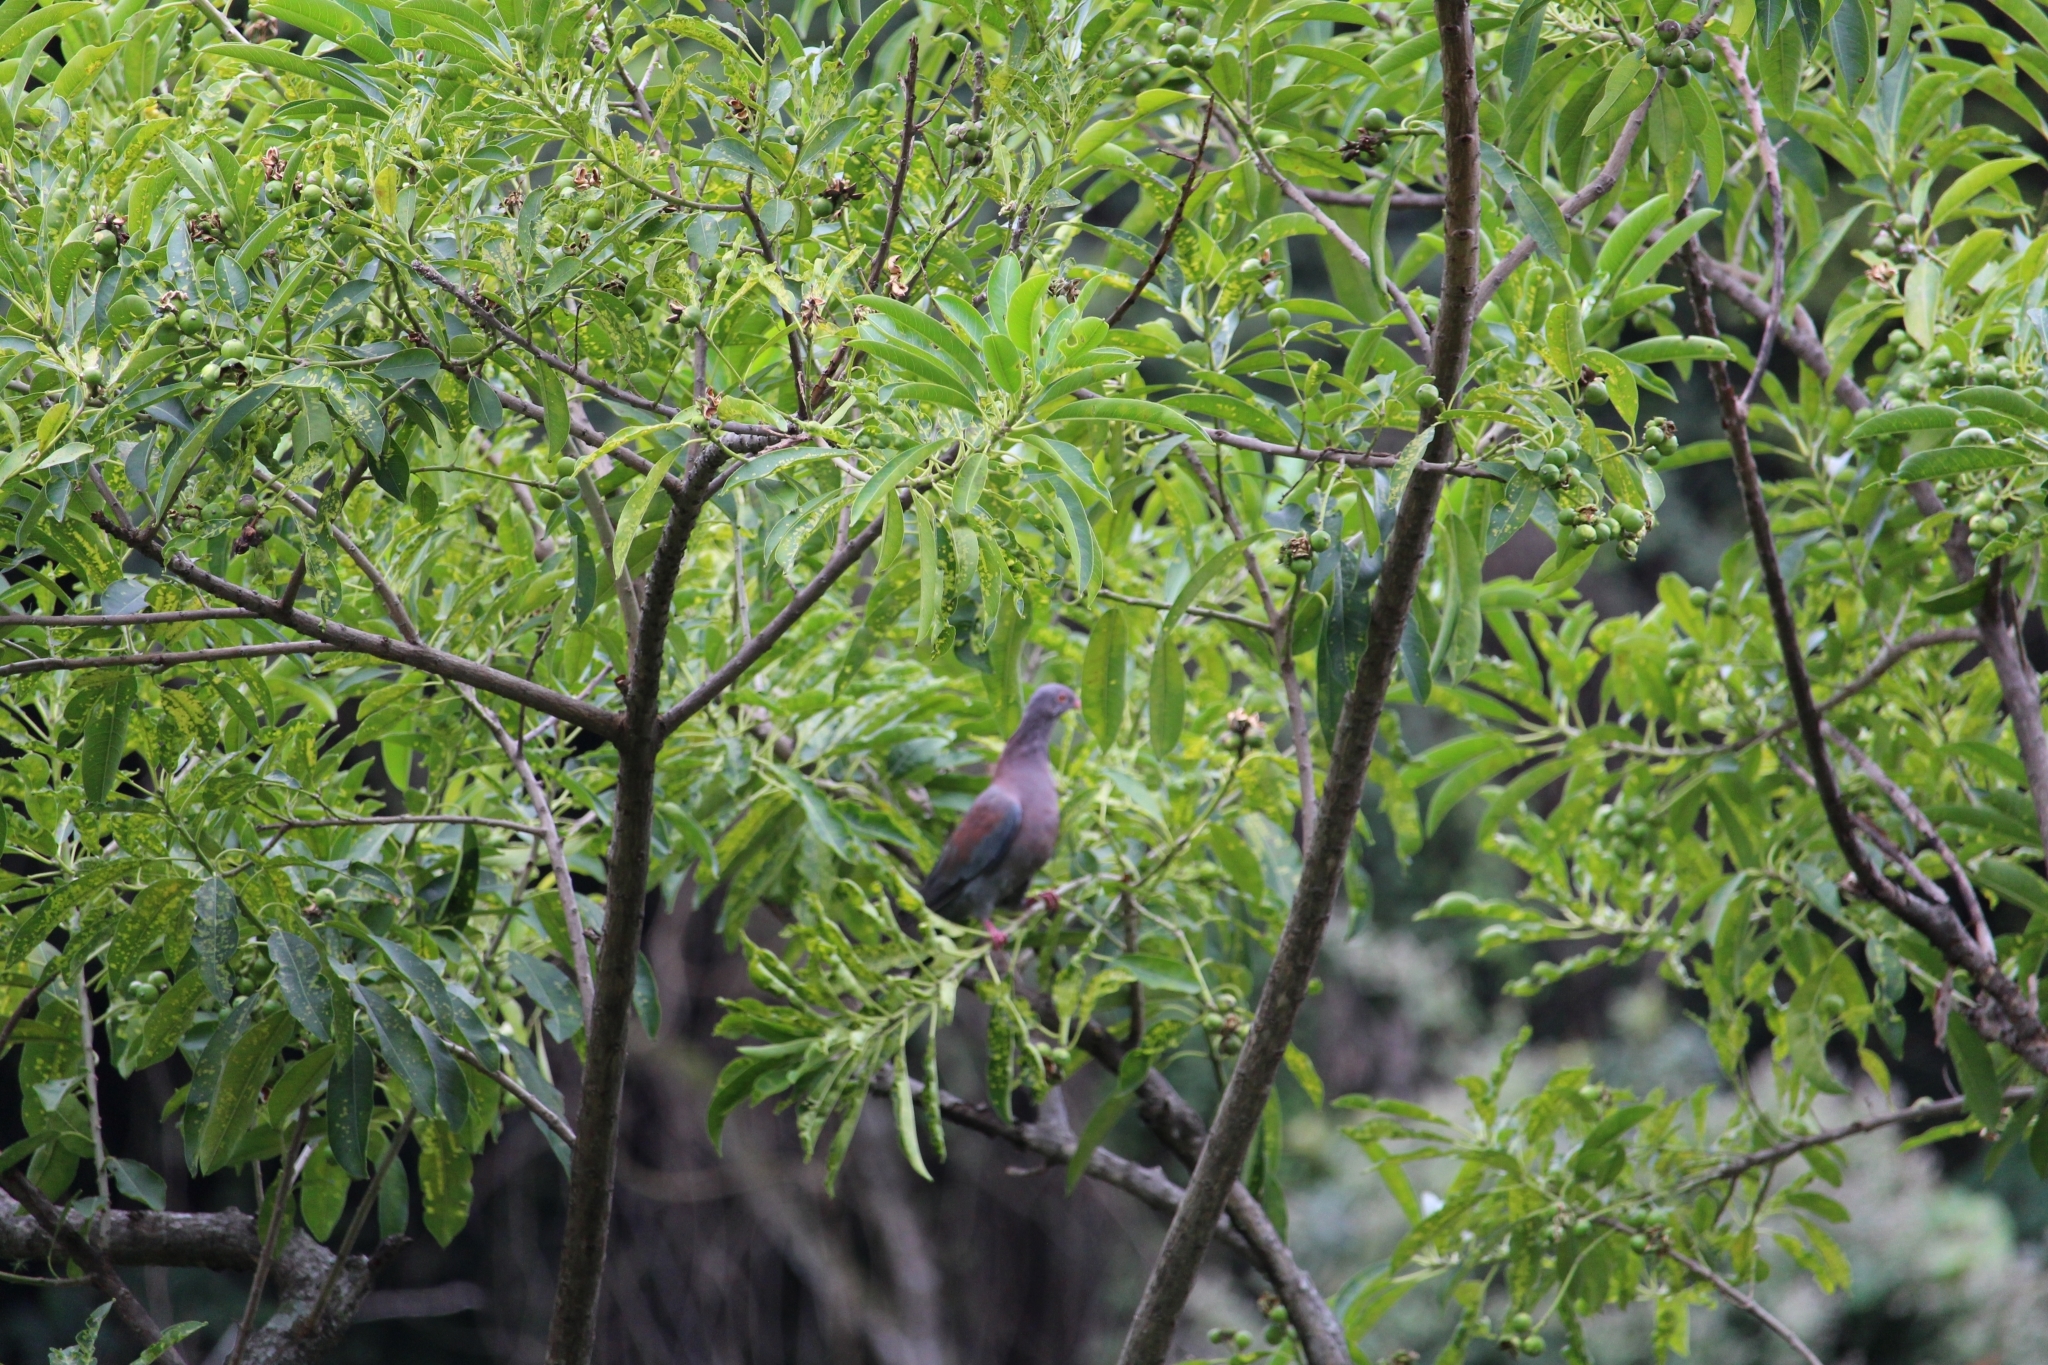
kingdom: Animalia
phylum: Chordata
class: Aves
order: Columbiformes
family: Columbidae
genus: Patagioenas
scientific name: Patagioenas flavirostris
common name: Red-billed pigeon
